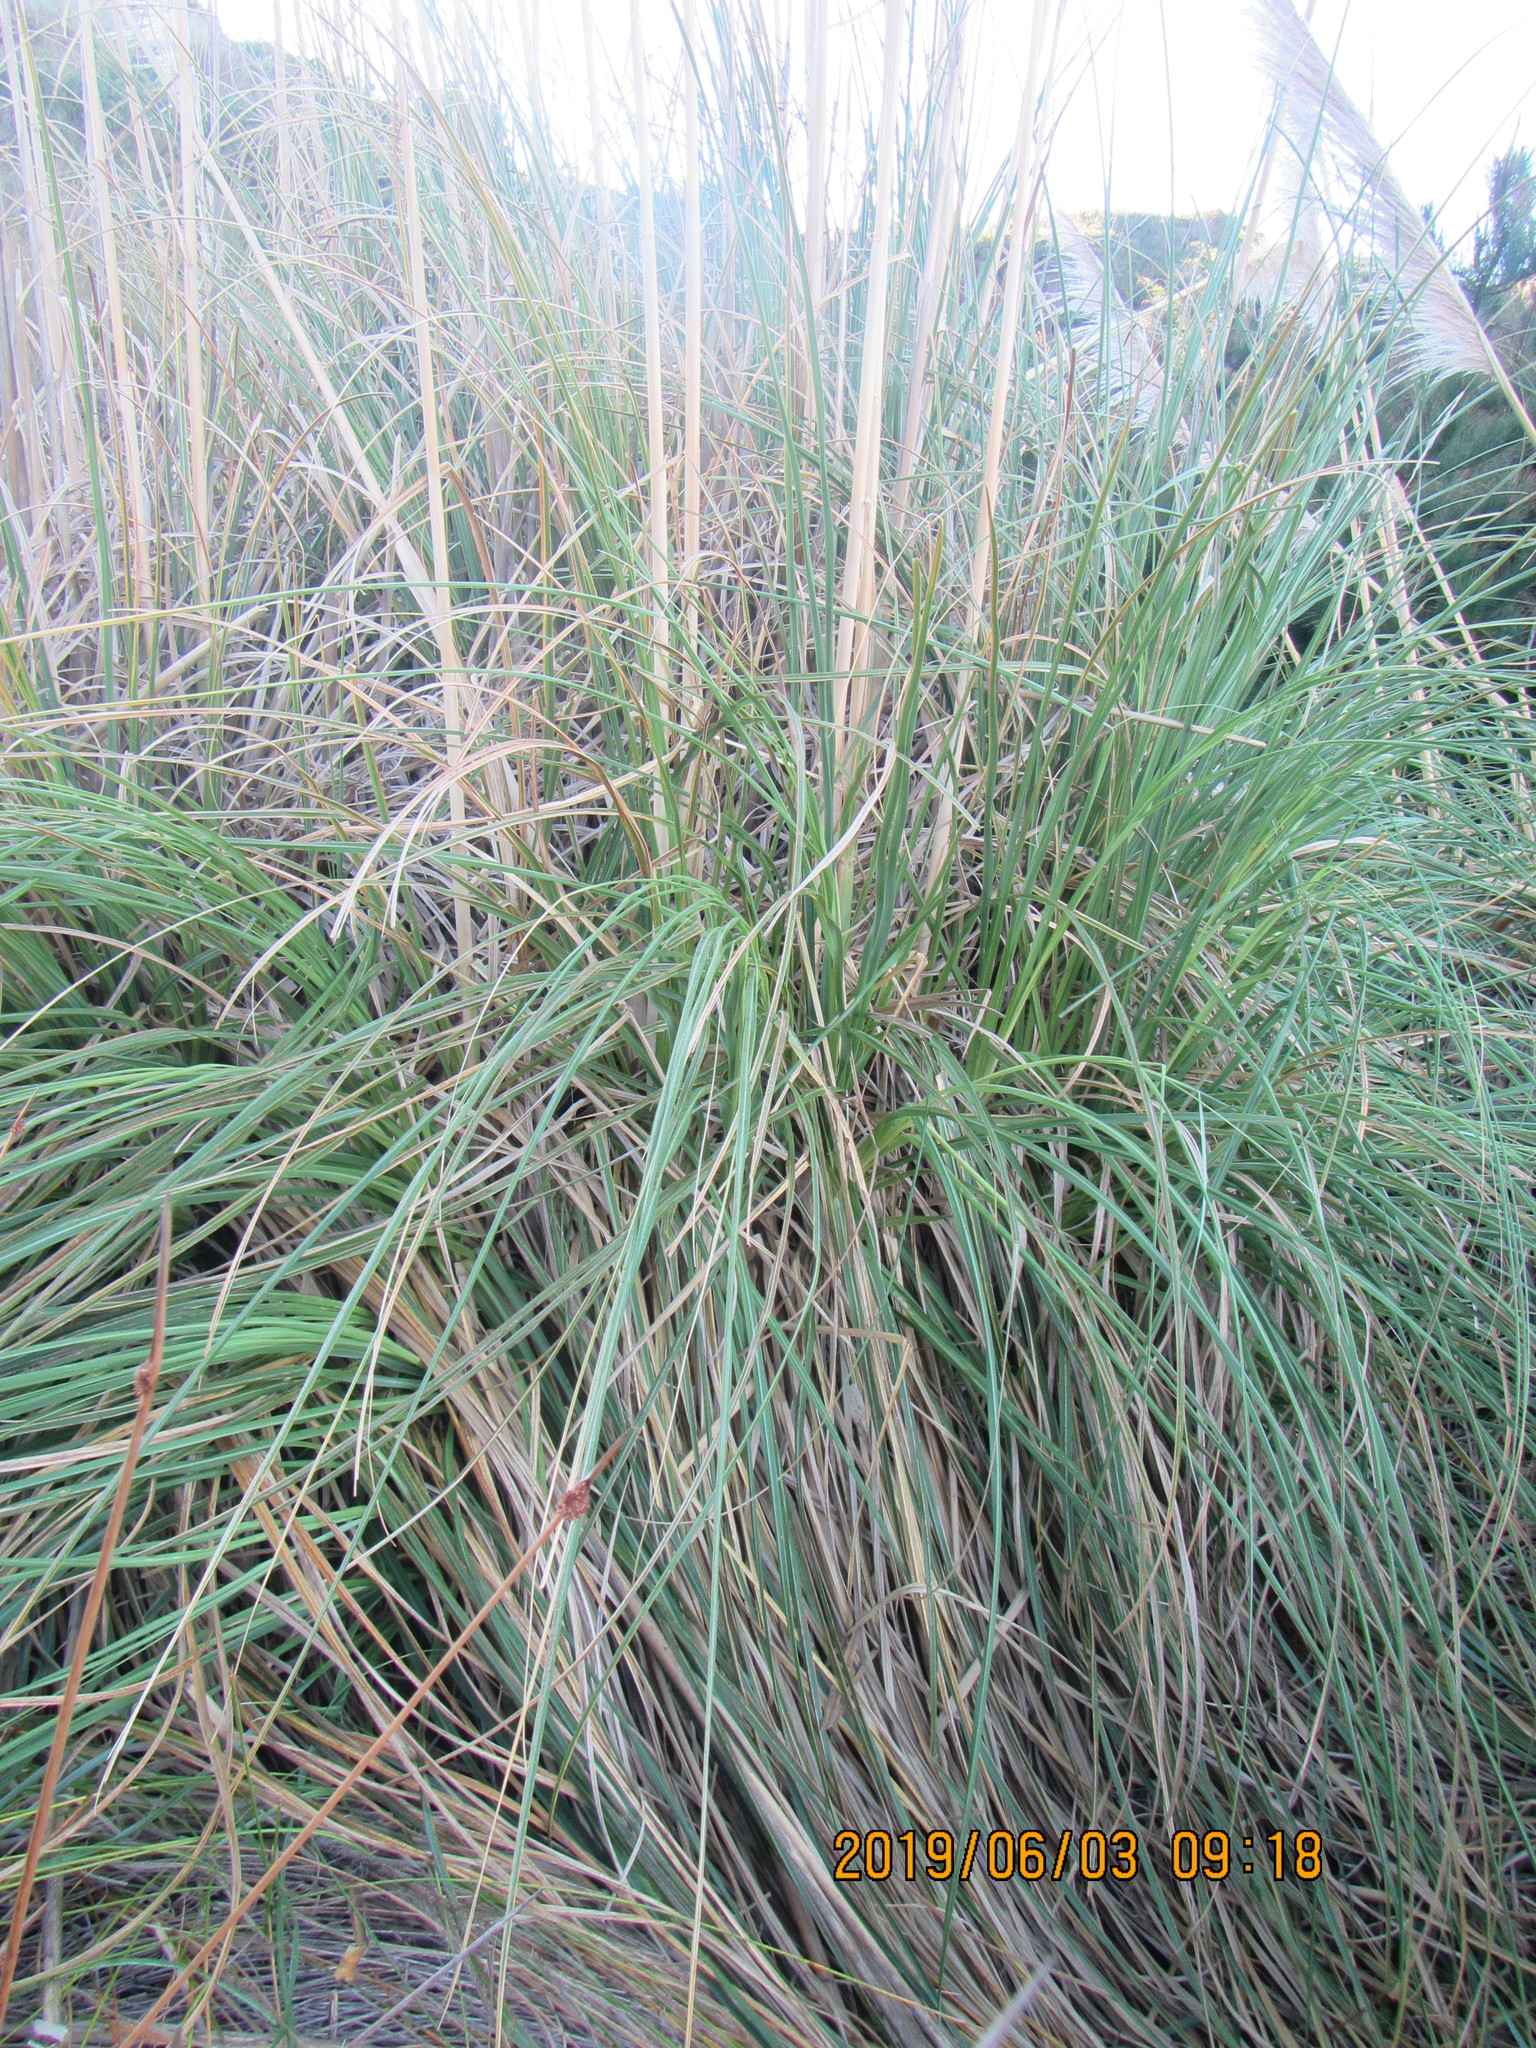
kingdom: Plantae
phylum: Tracheophyta
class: Liliopsida
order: Poales
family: Poaceae
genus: Cortaderia
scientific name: Cortaderia selloana
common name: Uruguayan pampas grass
